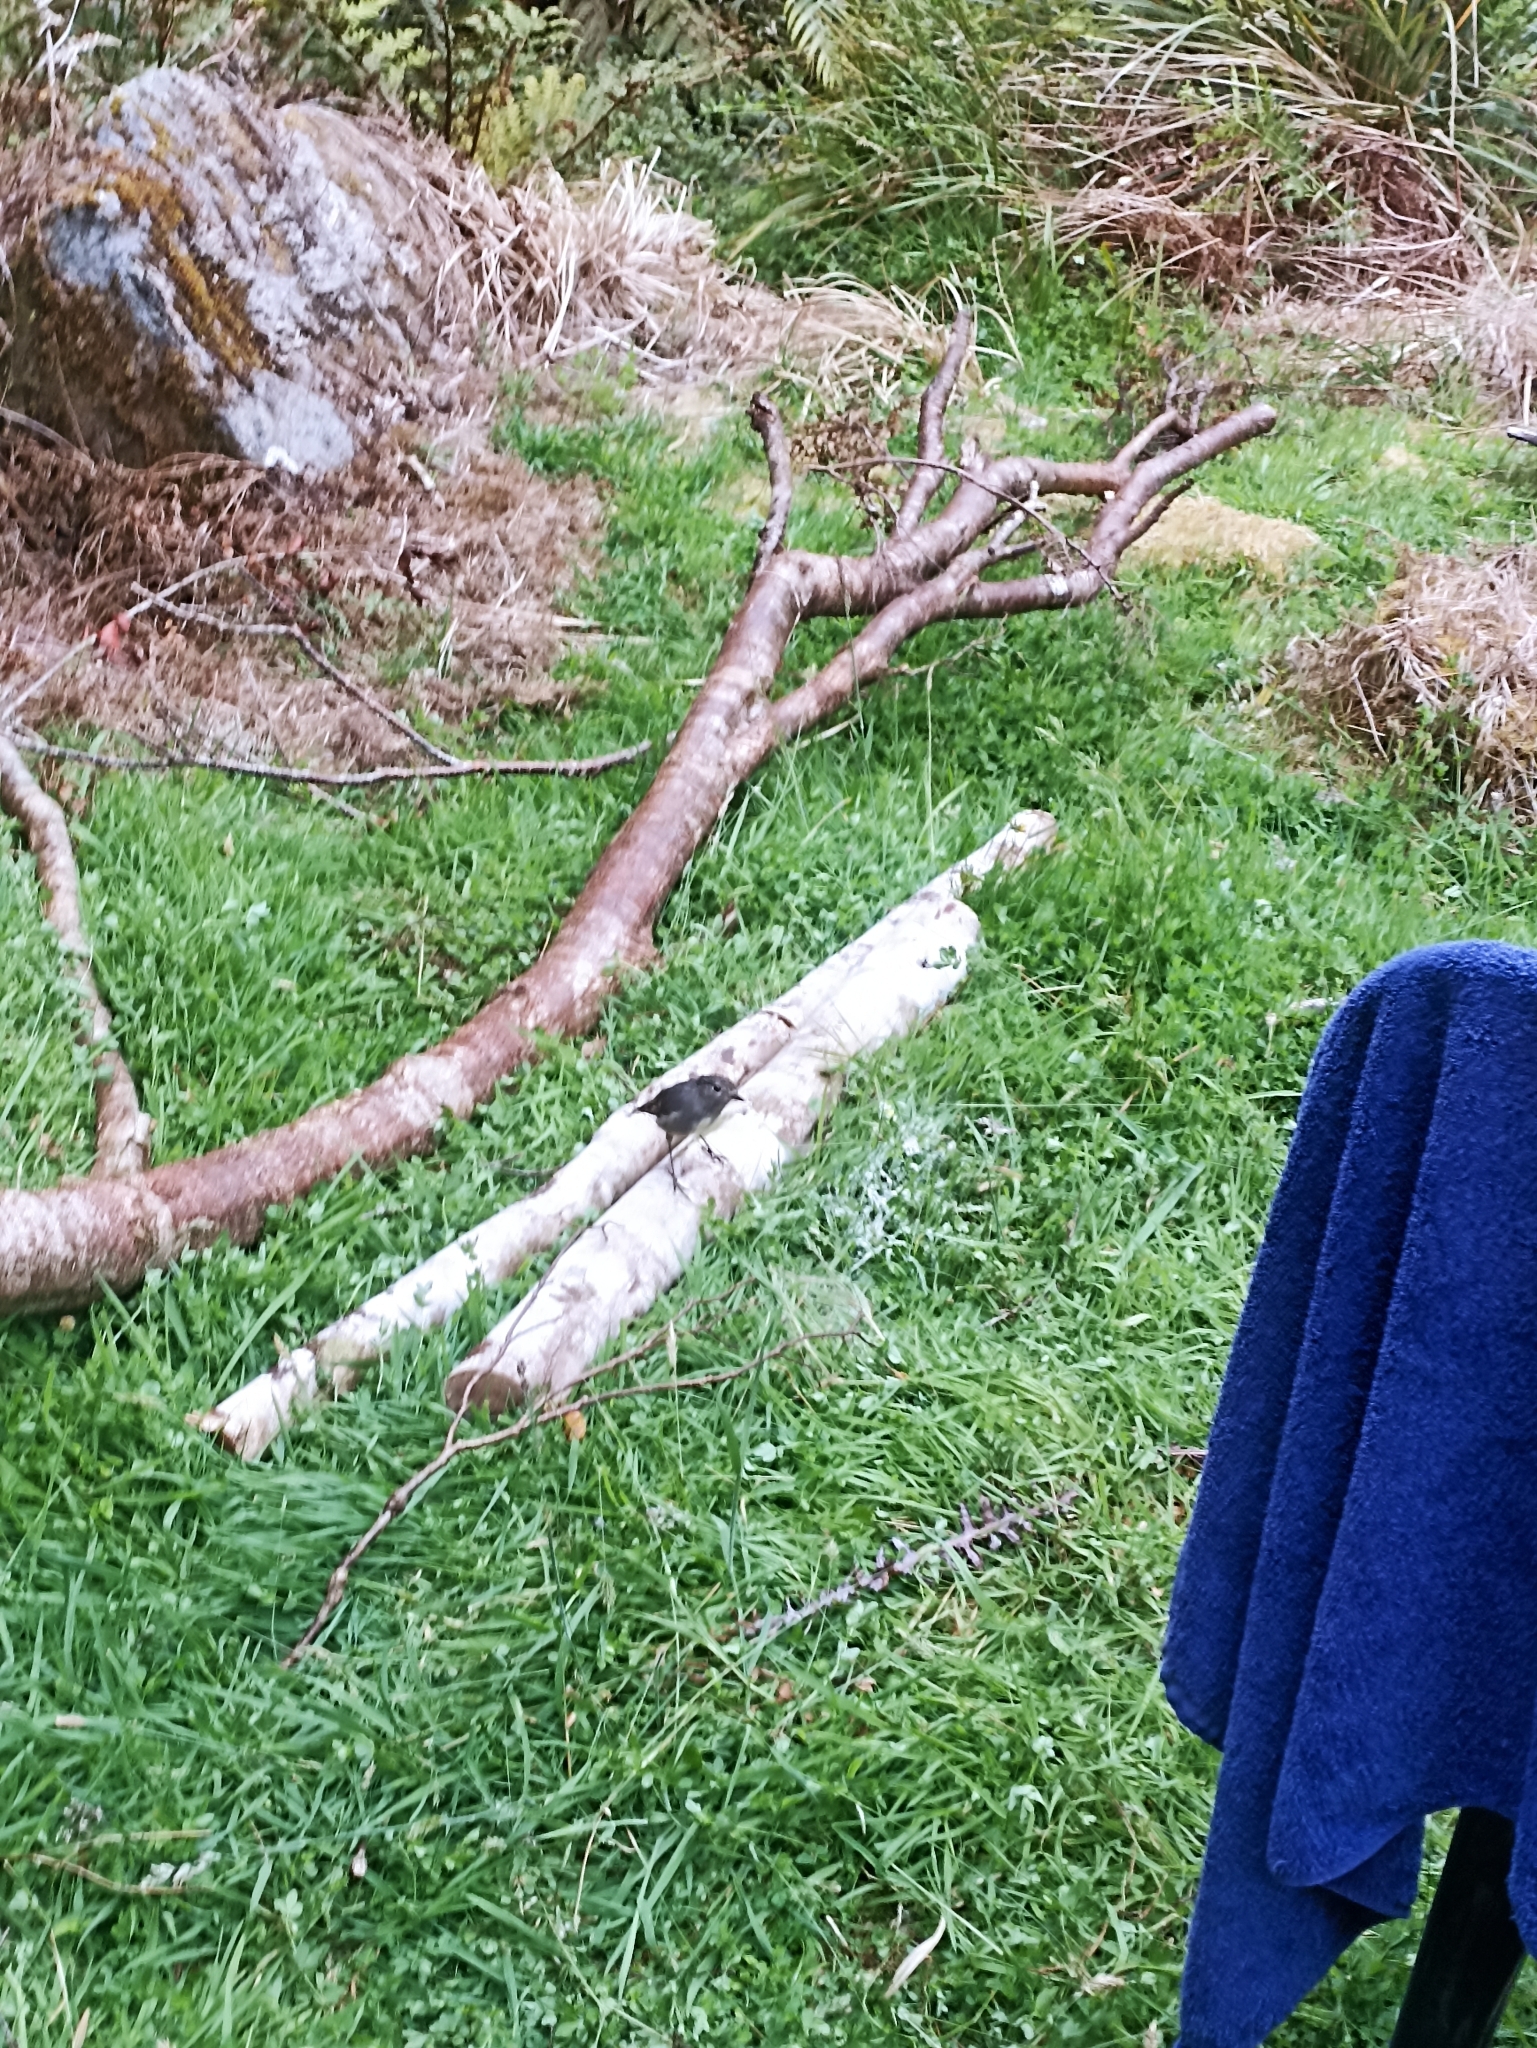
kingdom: Animalia
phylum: Chordata
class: Aves
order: Passeriformes
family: Petroicidae
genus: Petroica
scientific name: Petroica australis
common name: New zealand robin
